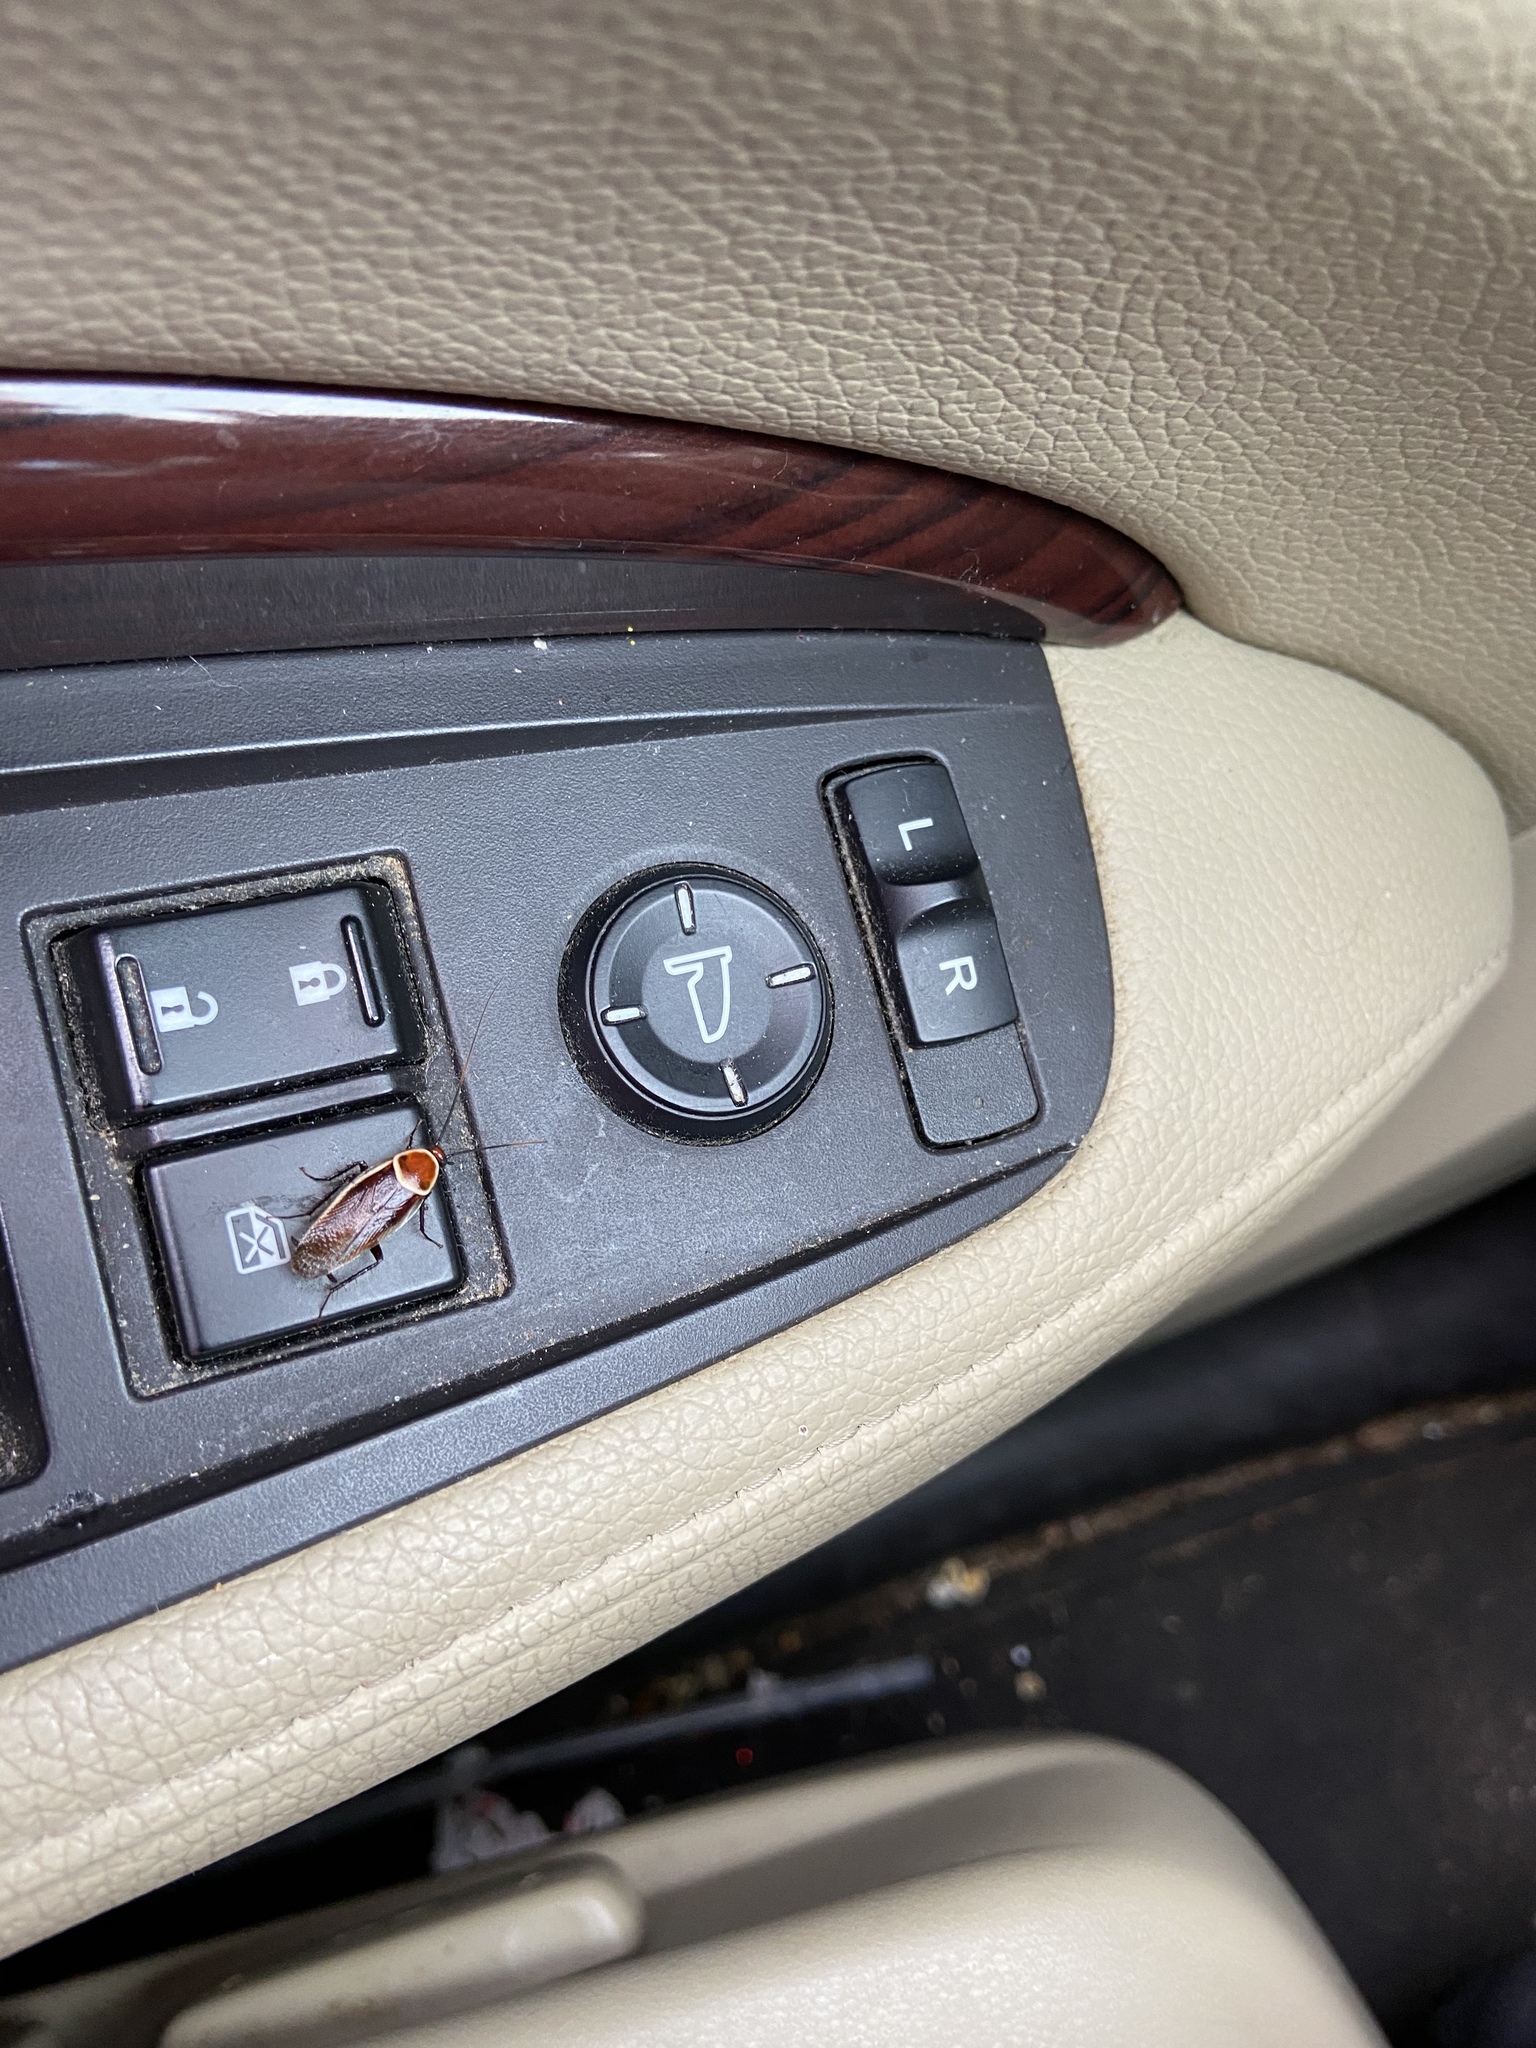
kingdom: Animalia
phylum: Arthropoda
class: Insecta
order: Blattodea
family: Ectobiidae
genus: Pseudomops
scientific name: Pseudomops septentrionalis
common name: Pale-bordered field cockroach
